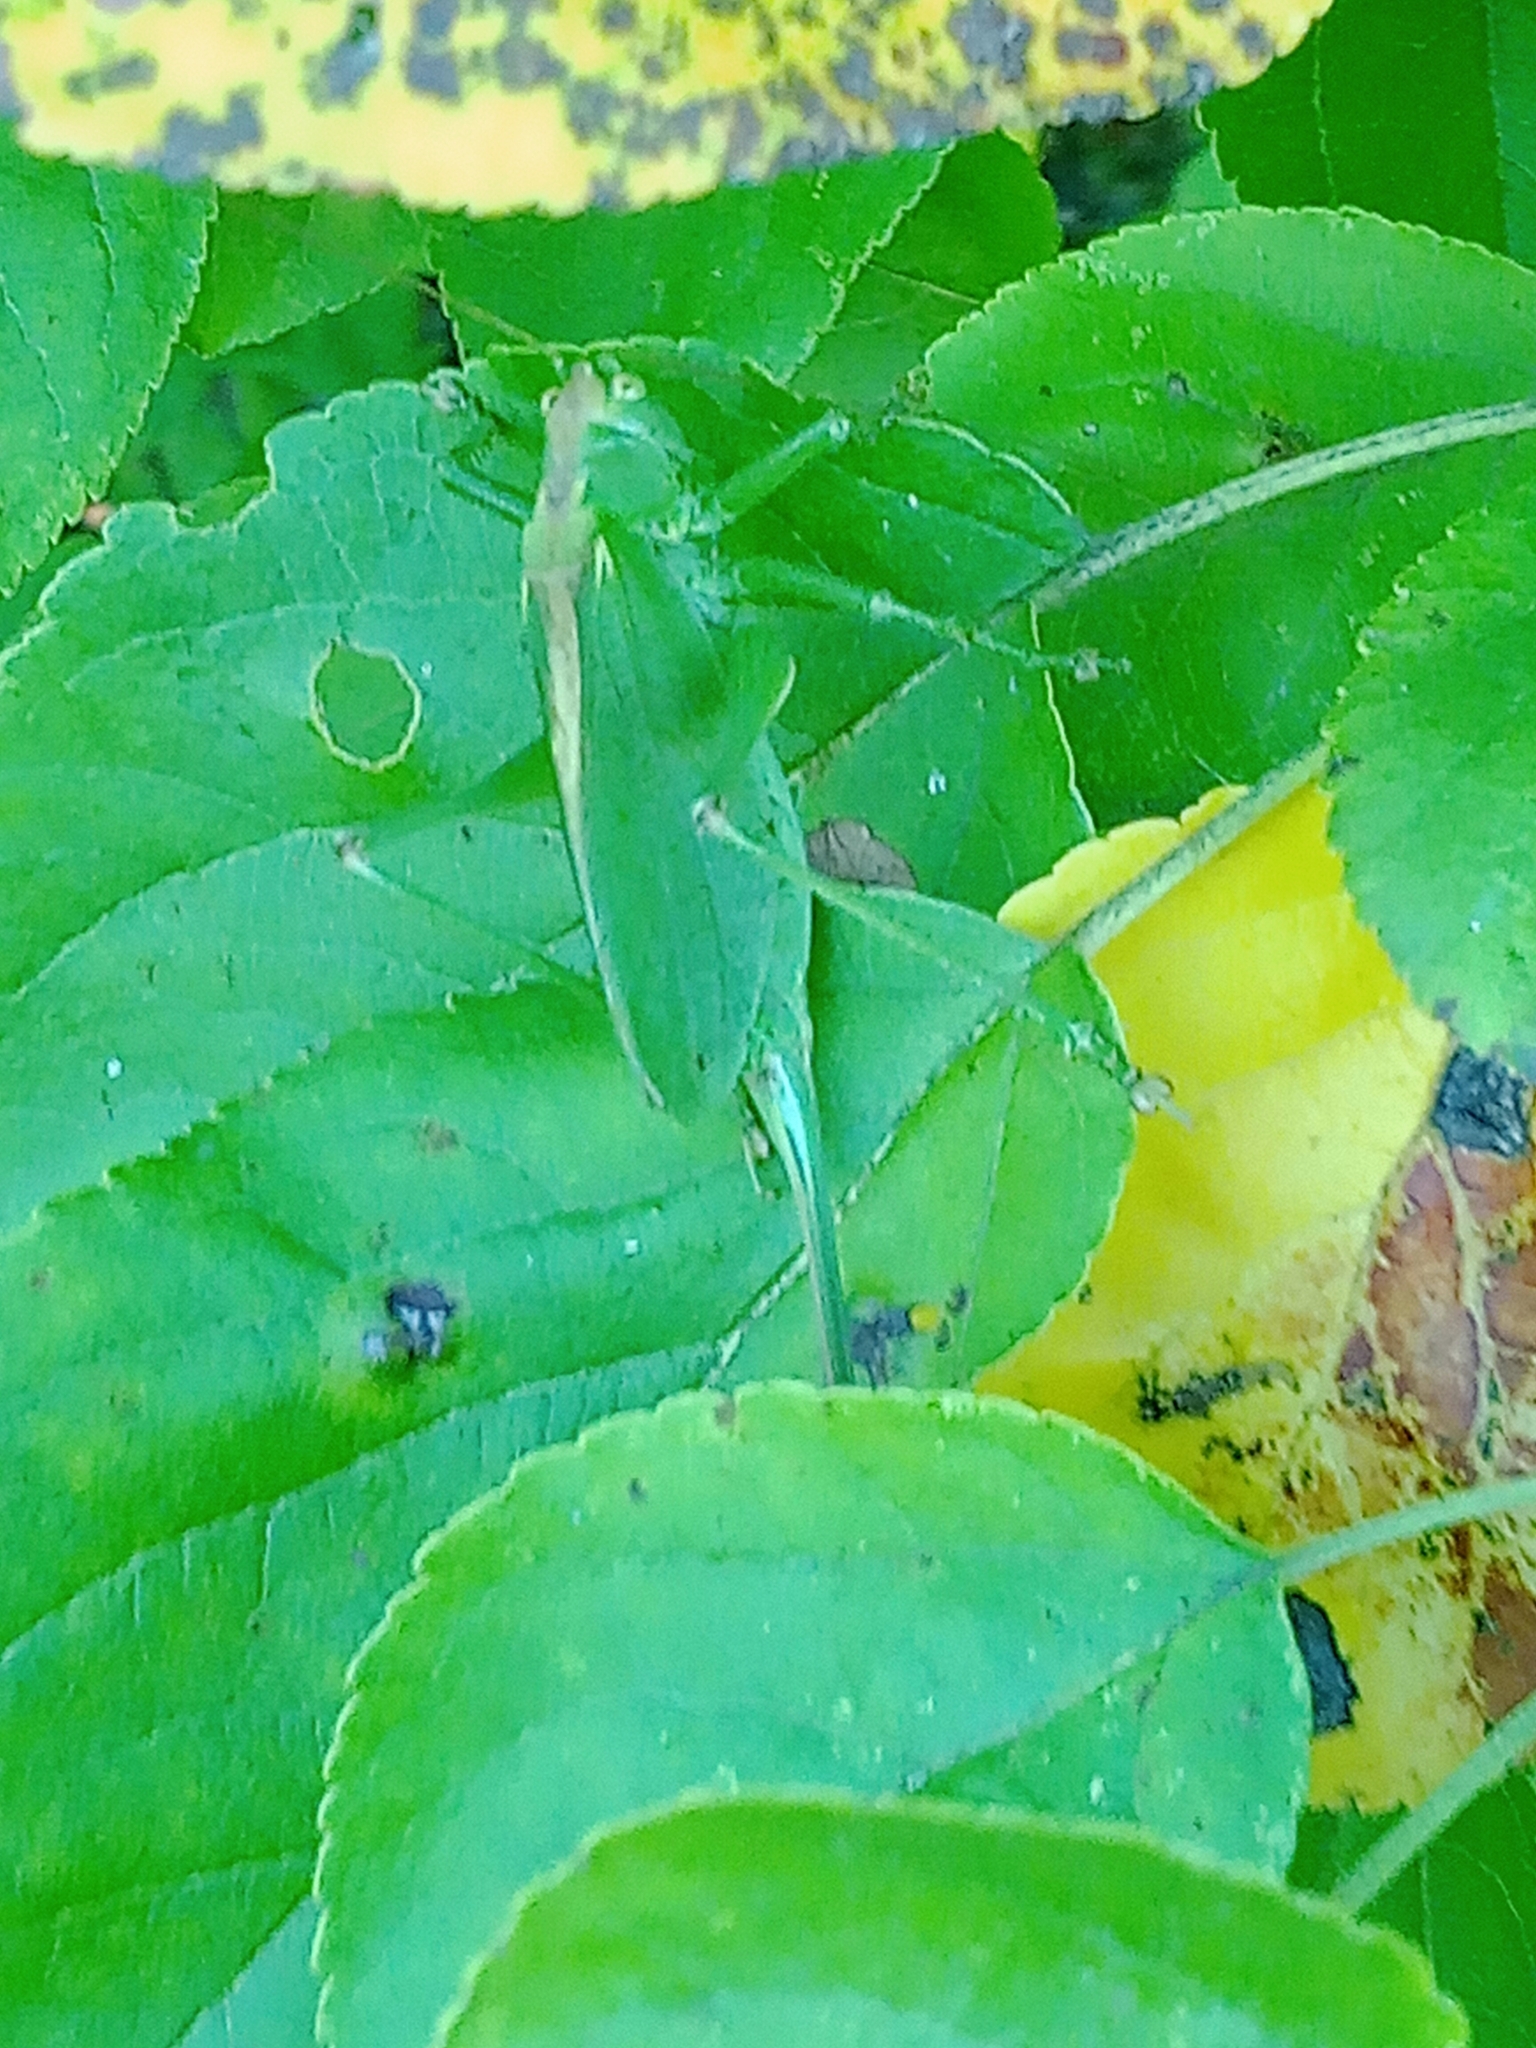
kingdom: Animalia
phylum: Arthropoda
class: Insecta
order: Orthoptera
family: Tettigoniidae
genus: Tettigonia
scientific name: Tettigonia cantans
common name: Upland green bush-cricket
